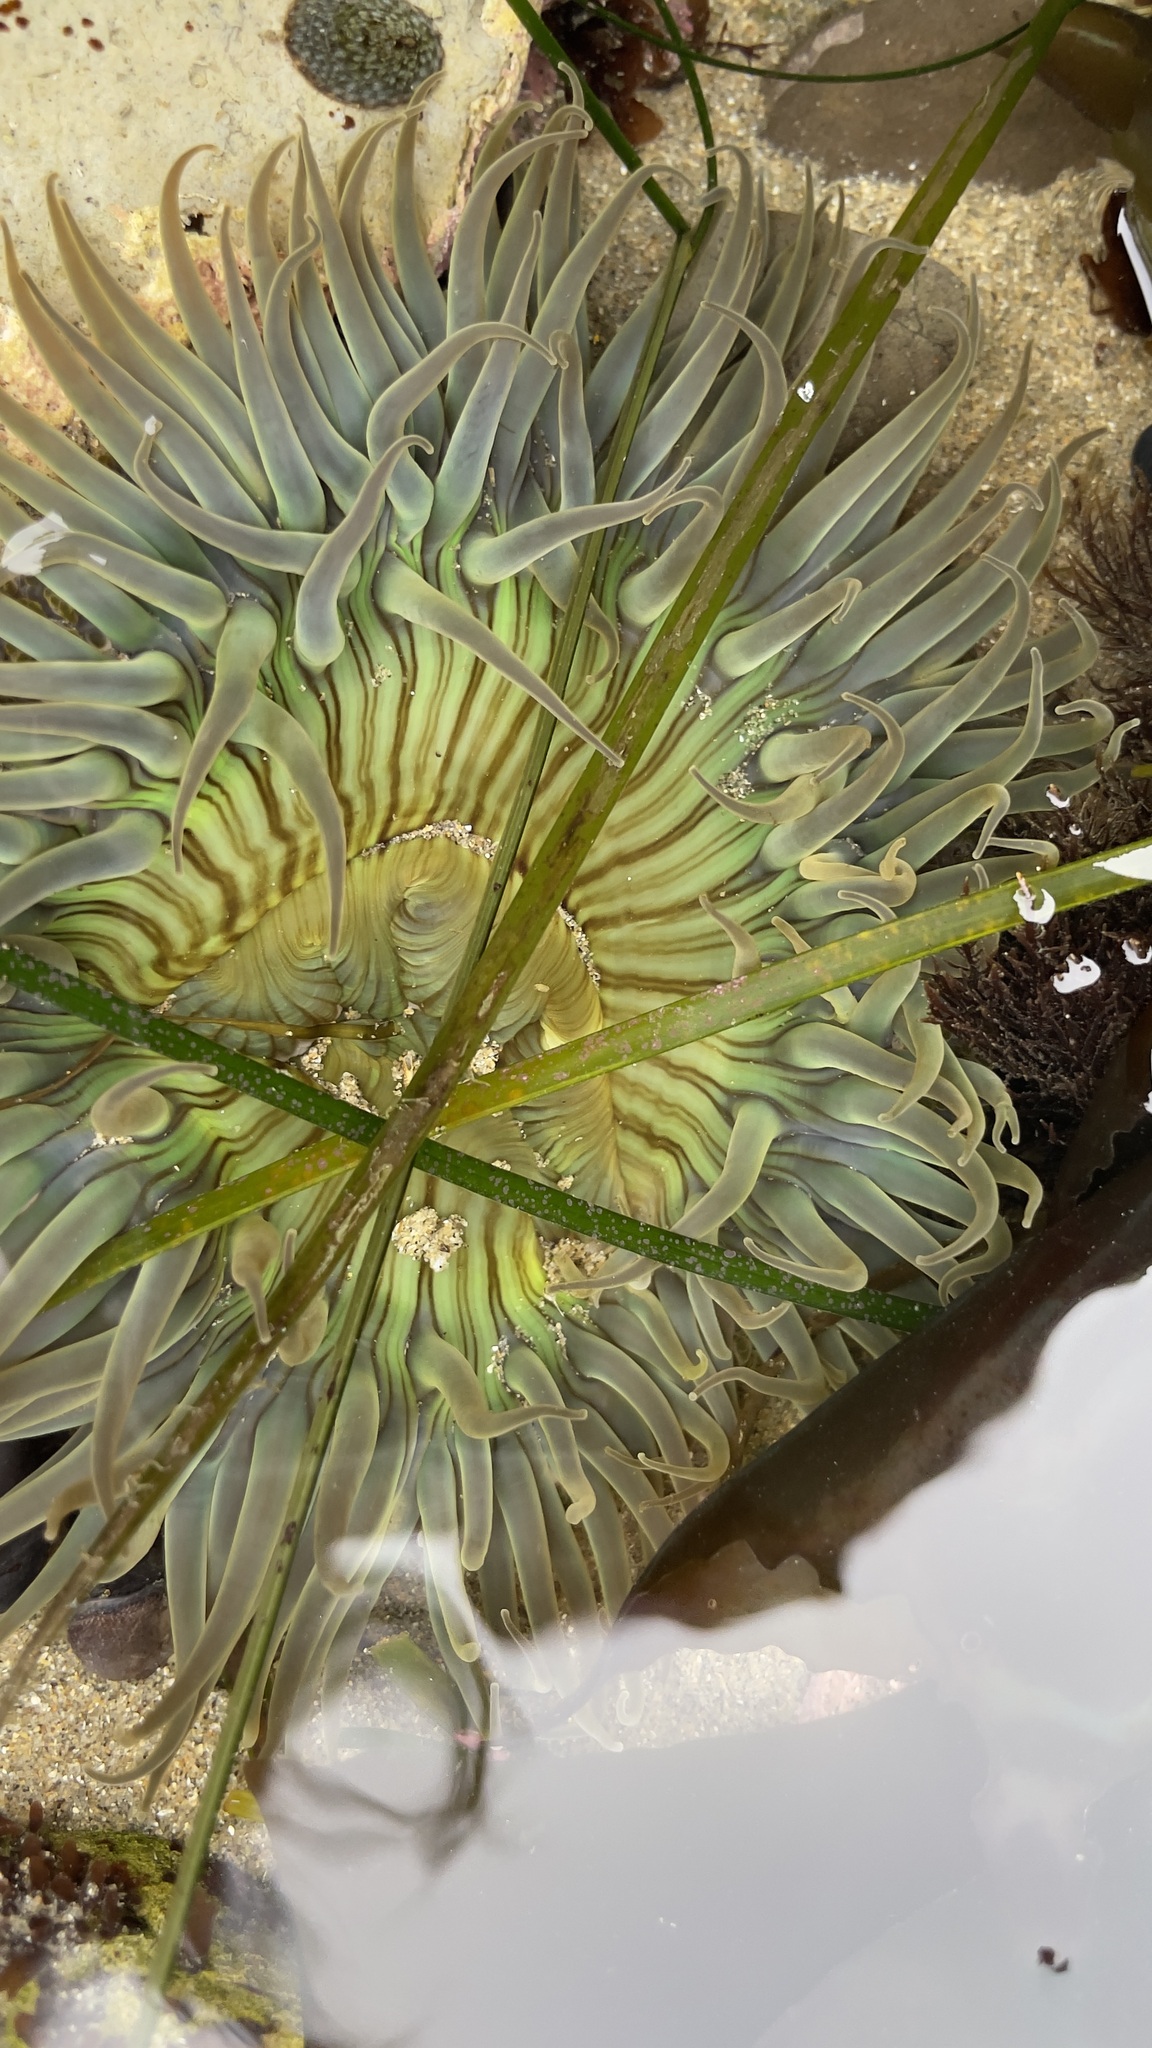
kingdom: Animalia
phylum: Cnidaria
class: Anthozoa
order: Actiniaria
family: Actiniidae
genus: Anthopleura
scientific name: Anthopleura sola
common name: Sun anemone
